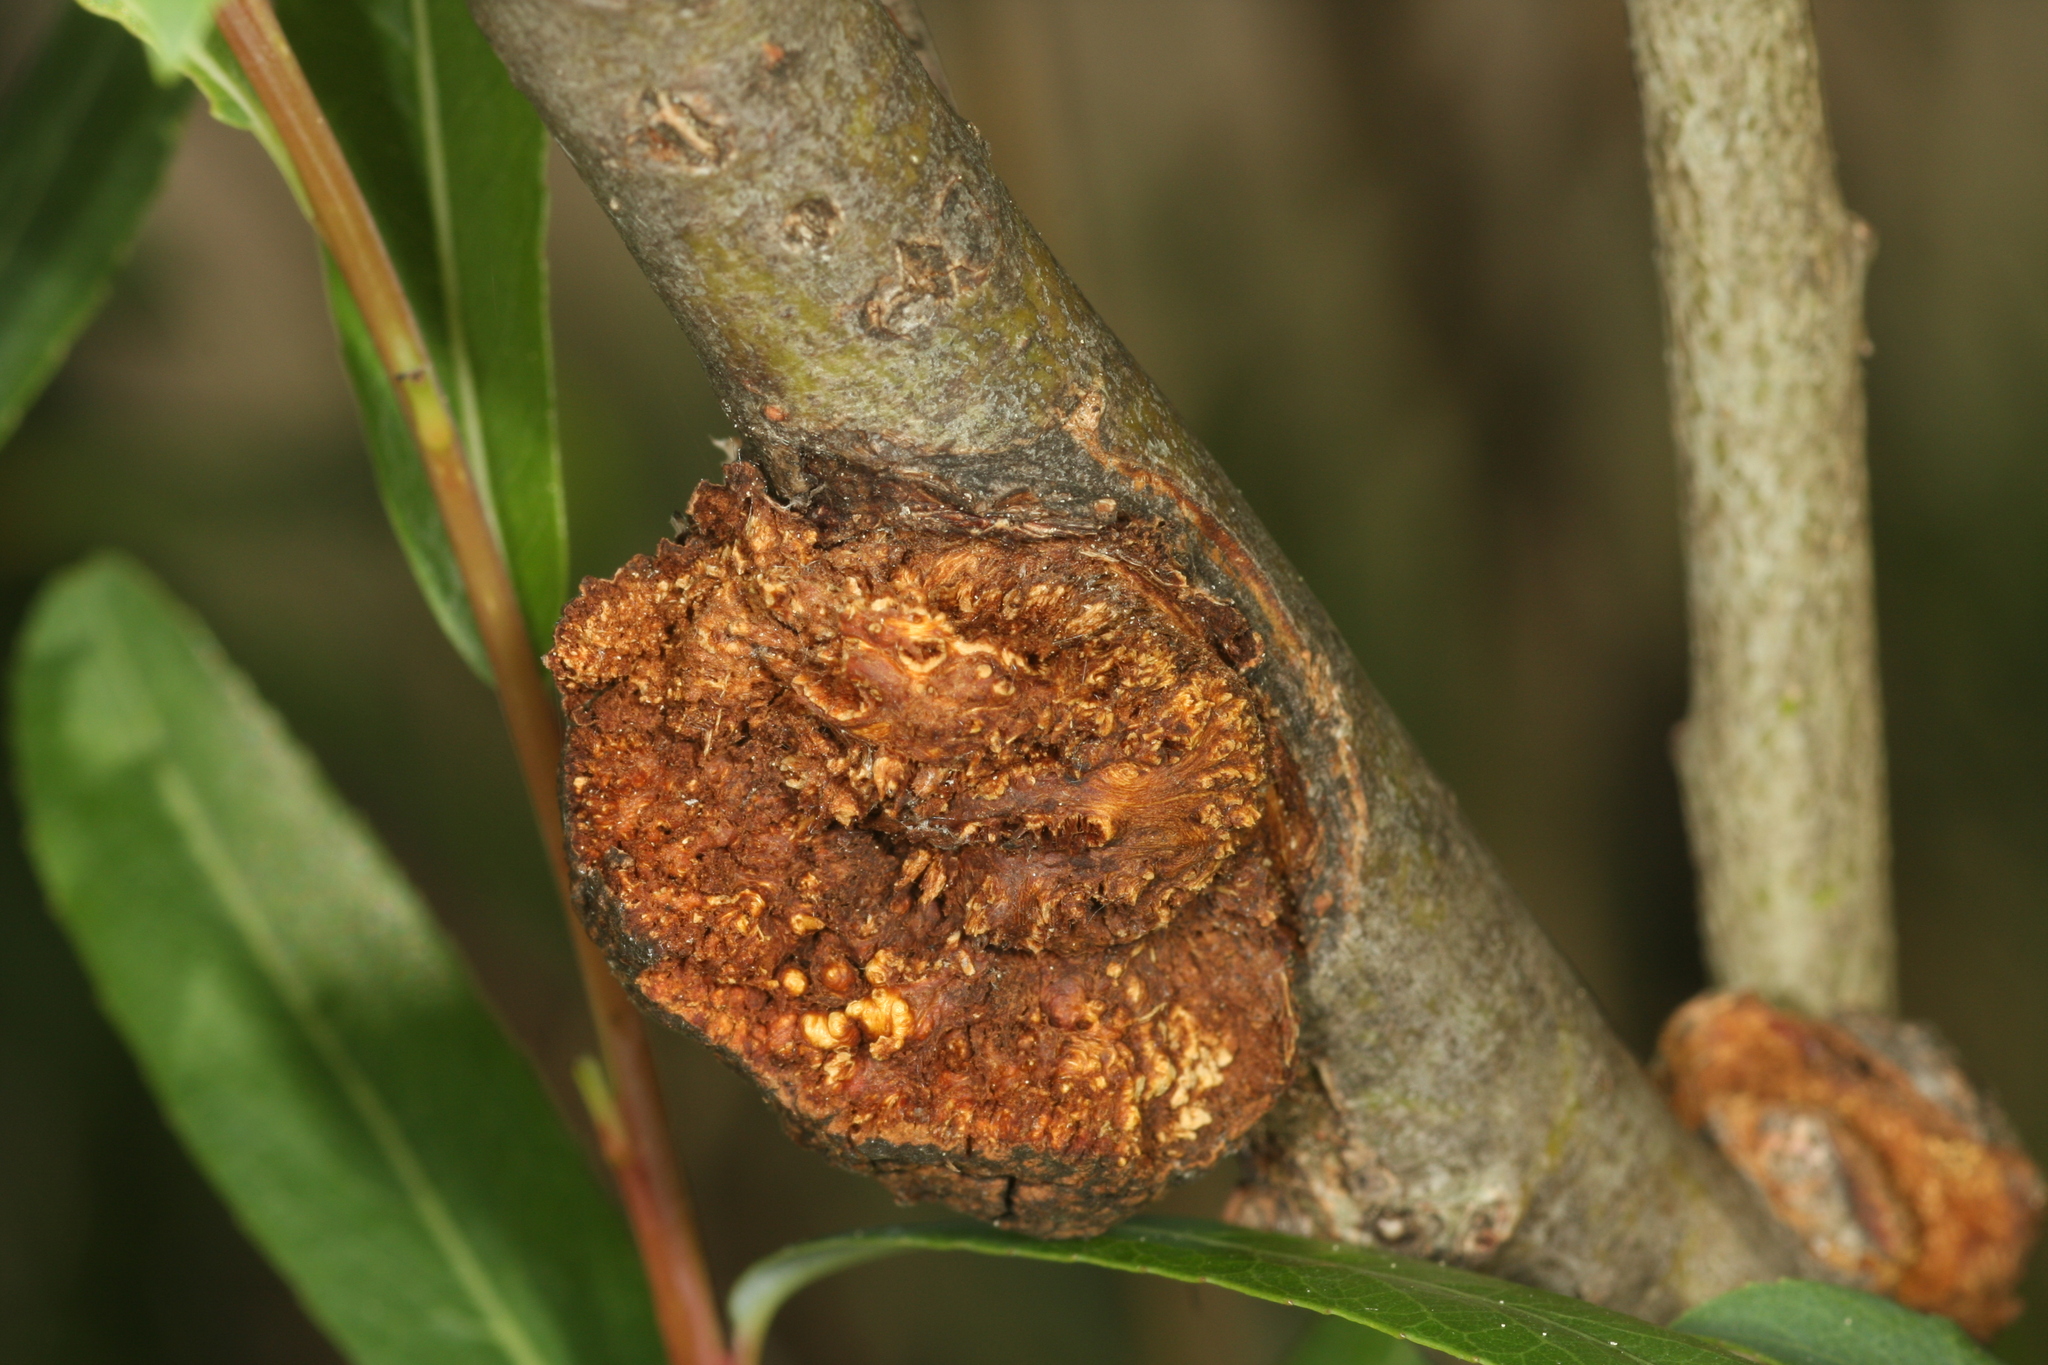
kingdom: Bacteria
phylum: Proteobacteria
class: Alphaproteobacteria
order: Rhizobiales
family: Rhizobiaceae
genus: Rhizobium
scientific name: Rhizobium Agrobacterium radiobacter
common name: Bacterial crown gall
